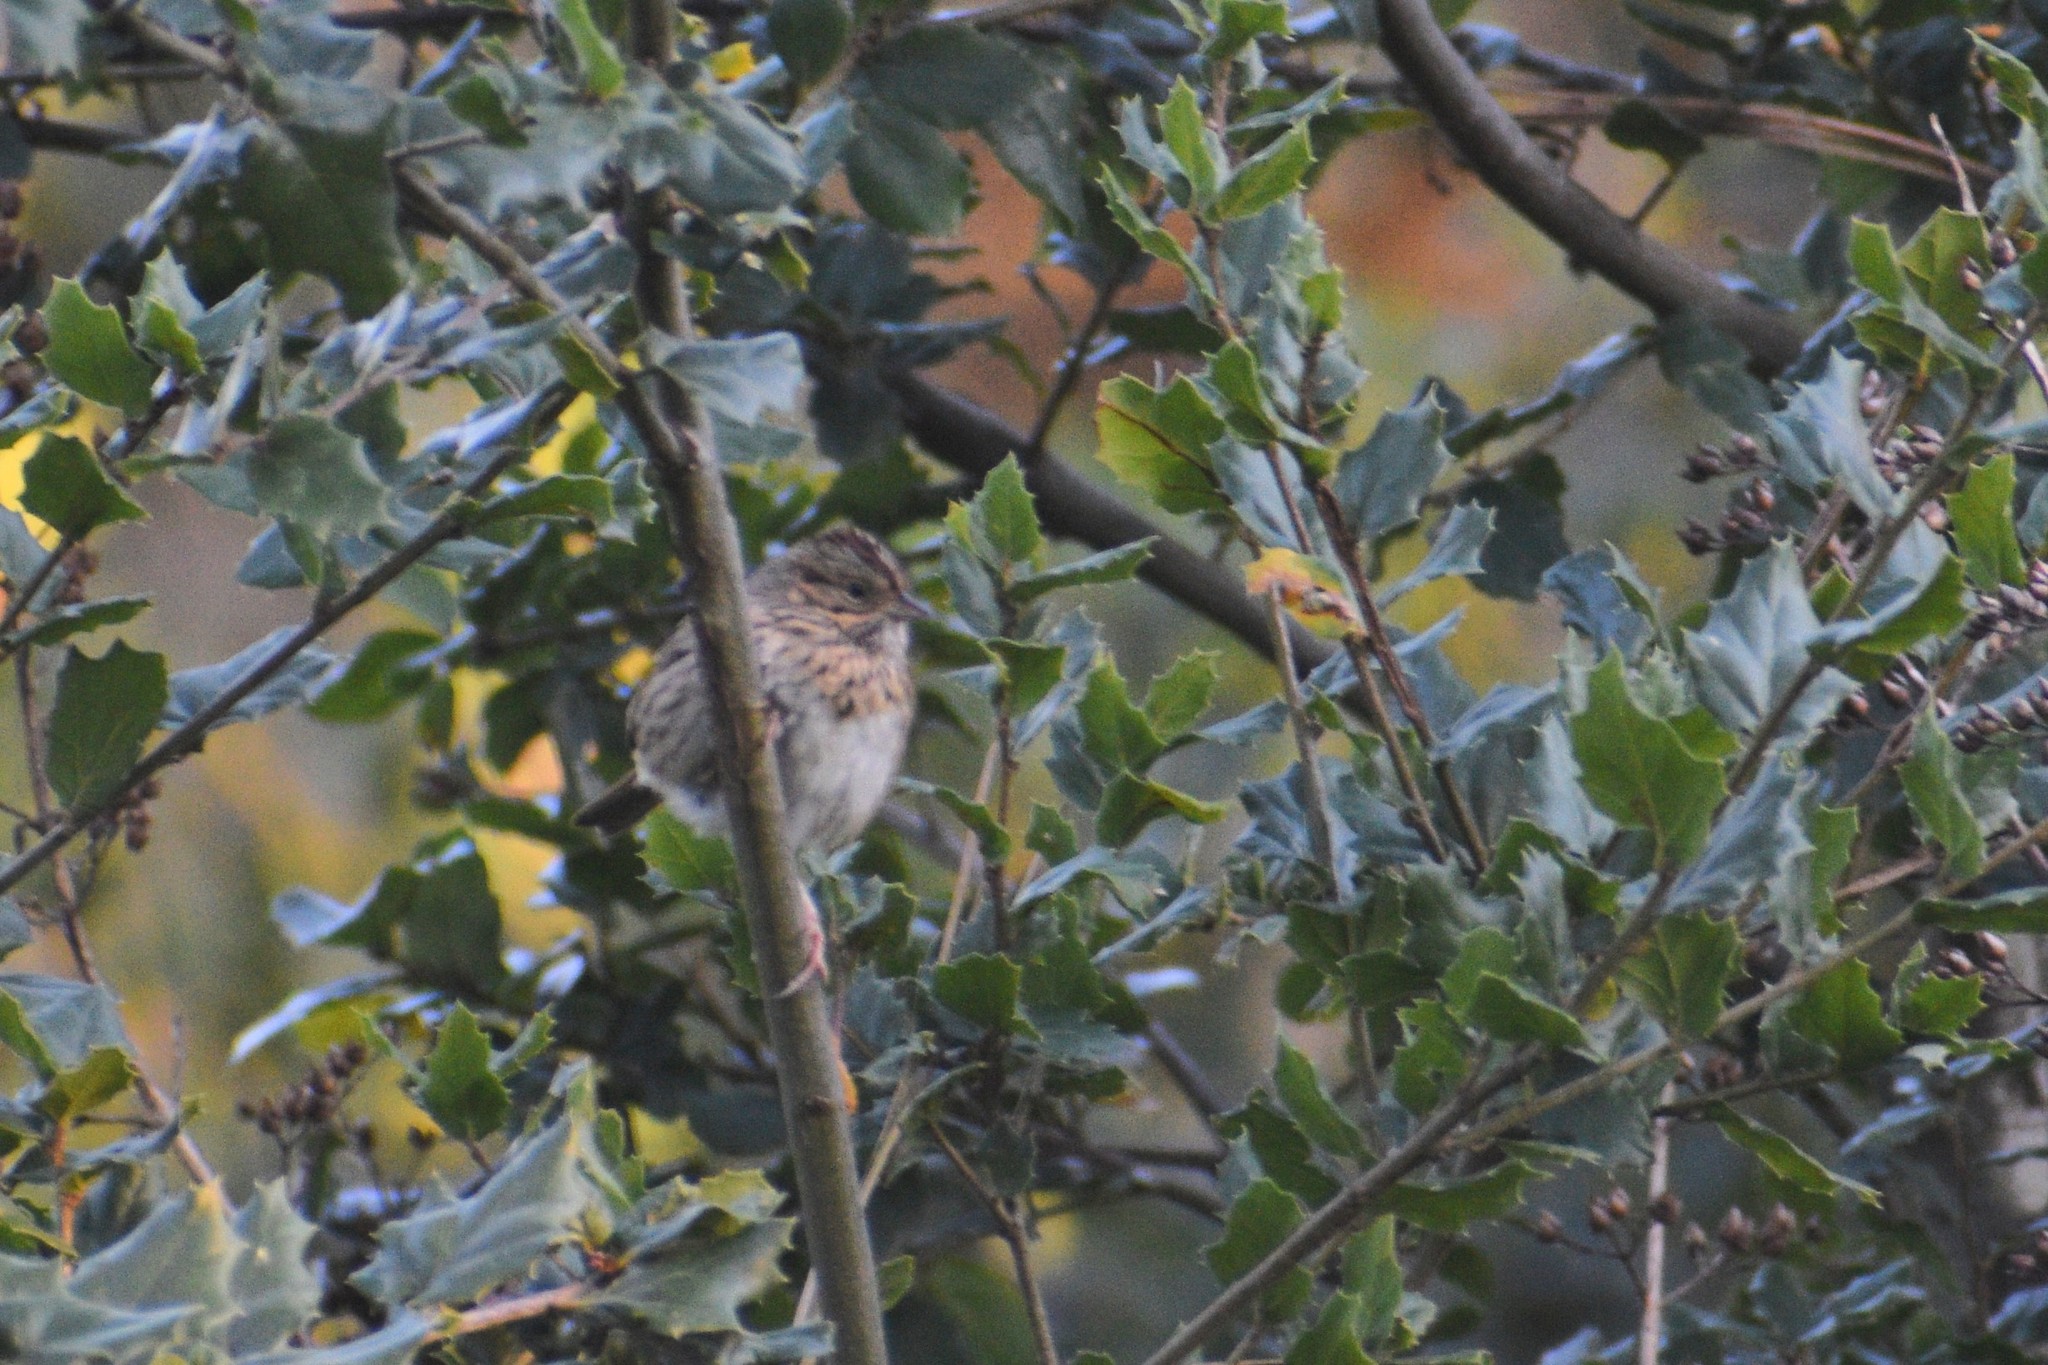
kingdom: Animalia
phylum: Chordata
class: Aves
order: Passeriformes
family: Passerellidae
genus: Melospiza
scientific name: Melospiza lincolnii
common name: Lincoln's sparrow
